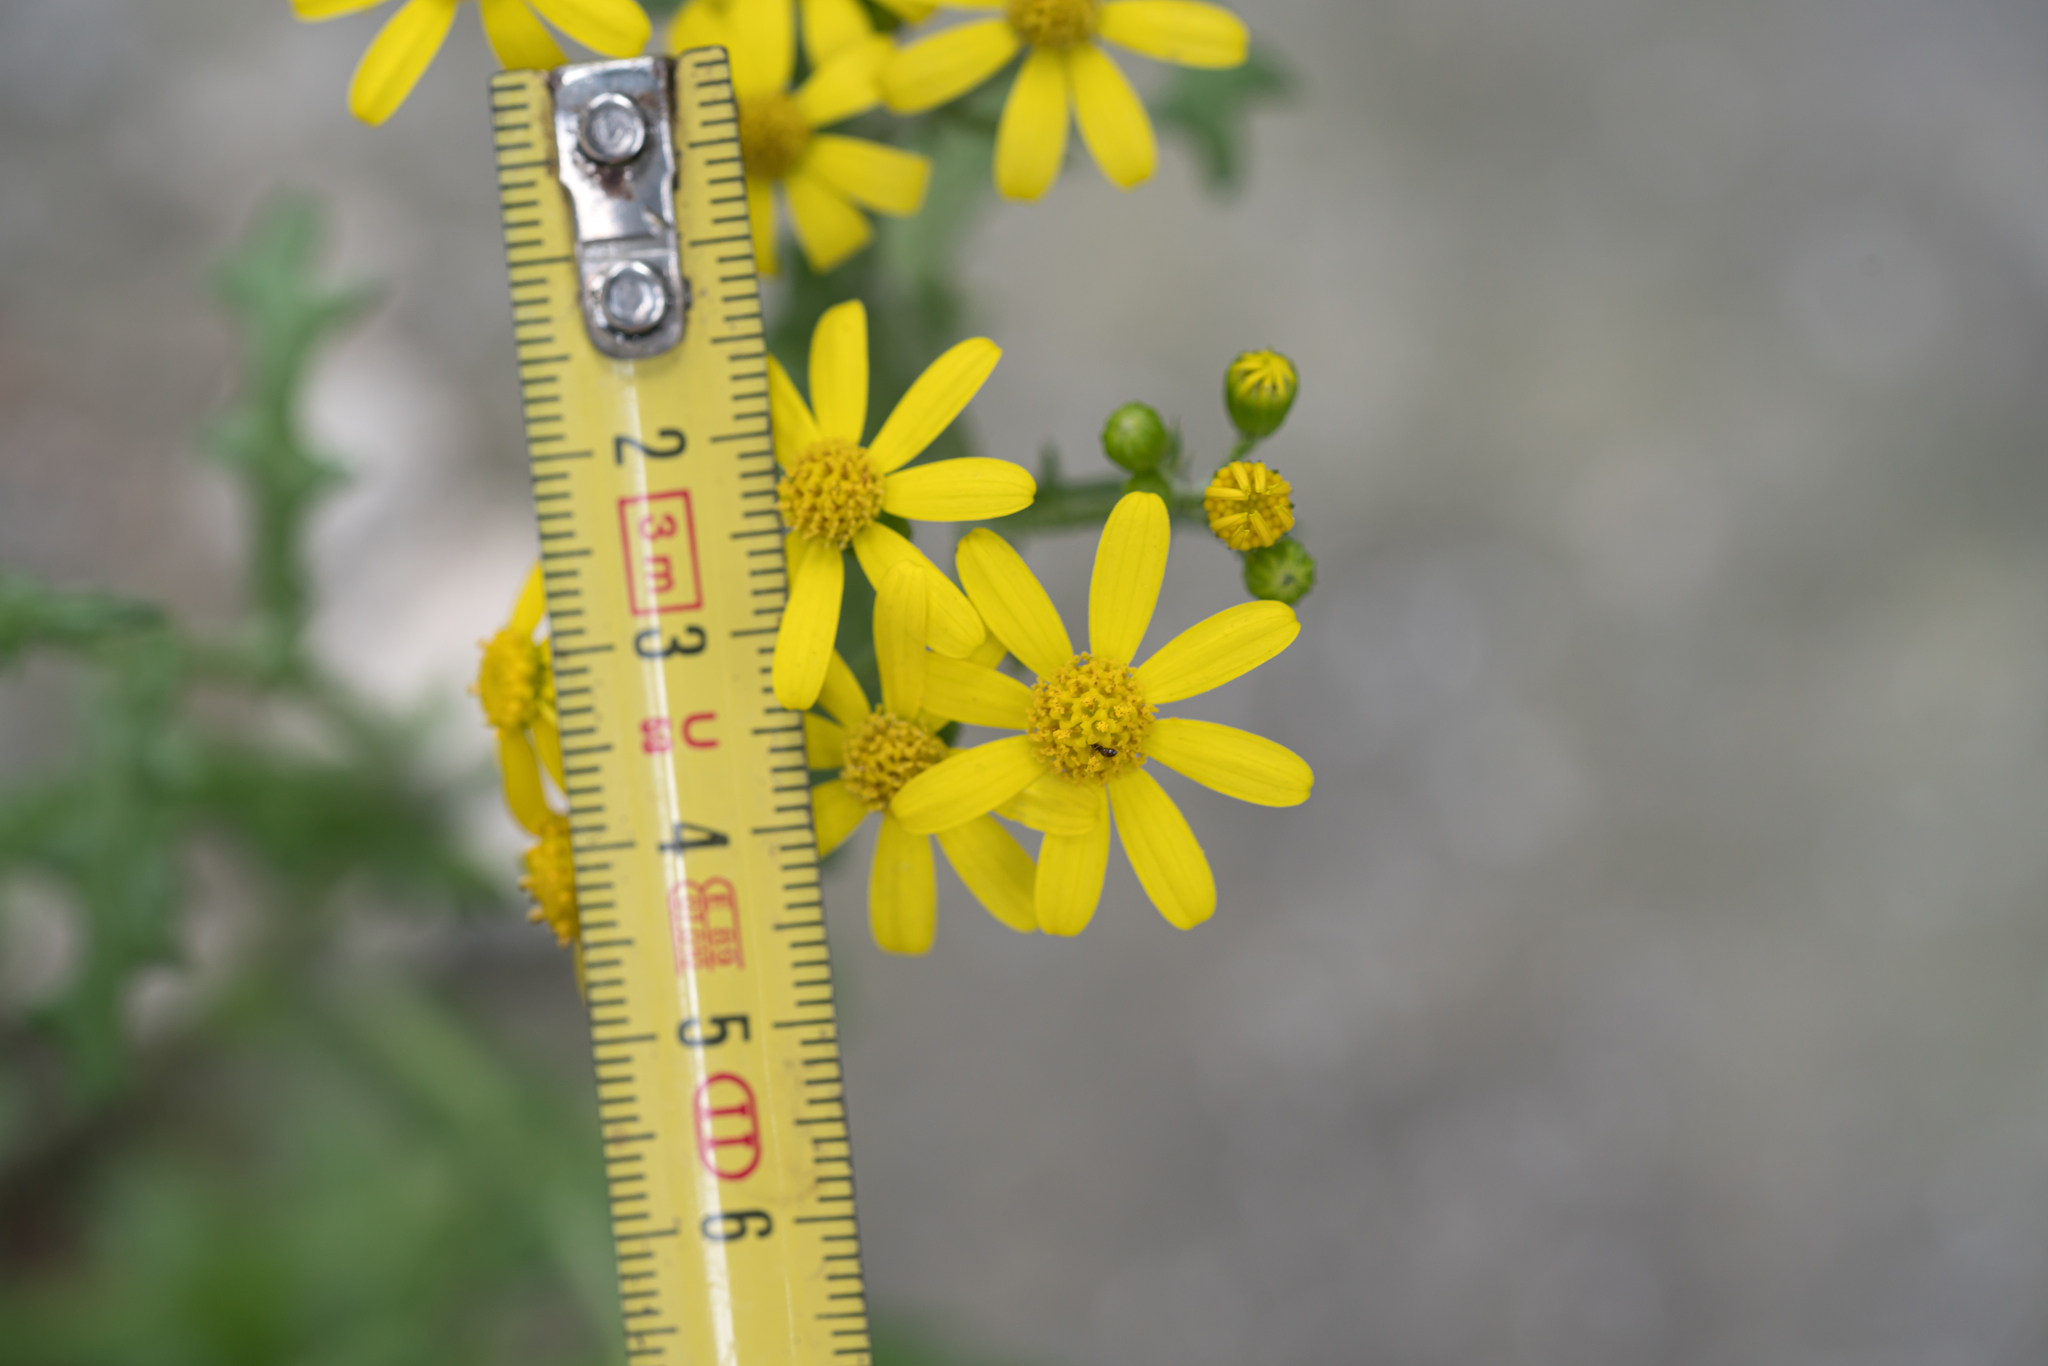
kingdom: Plantae
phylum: Tracheophyta
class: Magnoliopsida
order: Asterales
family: Asteraceae
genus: Senecio
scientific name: Senecio vernalis
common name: Eastern groundsel
